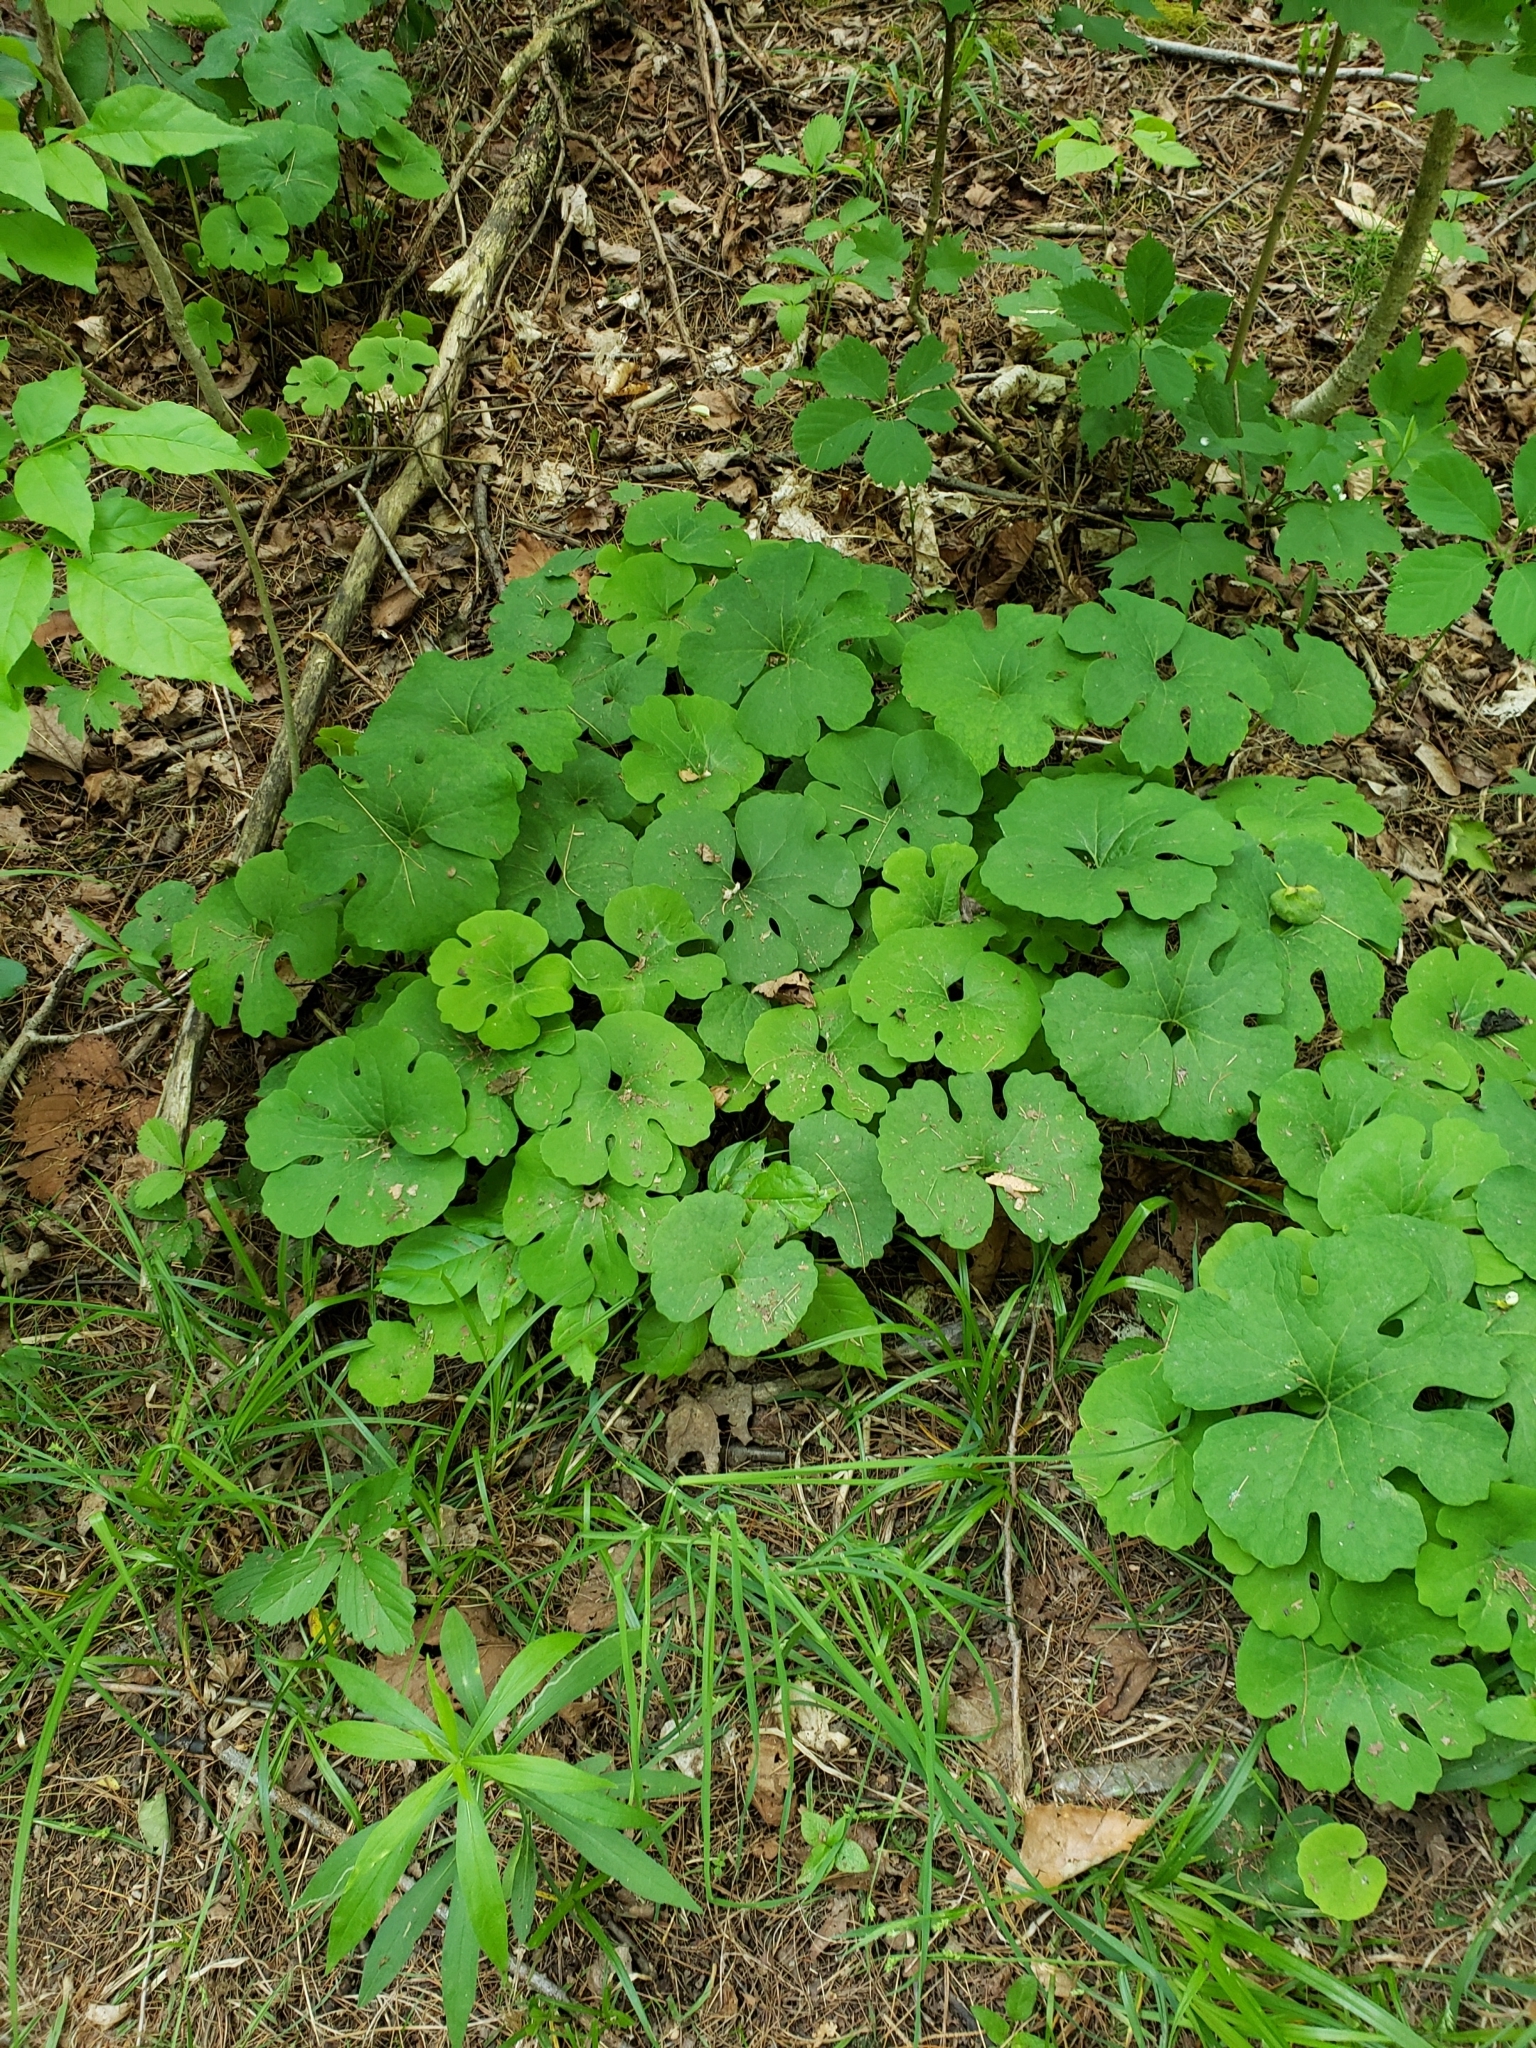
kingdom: Plantae
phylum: Tracheophyta
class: Magnoliopsida
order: Ranunculales
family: Papaveraceae
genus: Sanguinaria
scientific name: Sanguinaria canadensis
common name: Bloodroot
